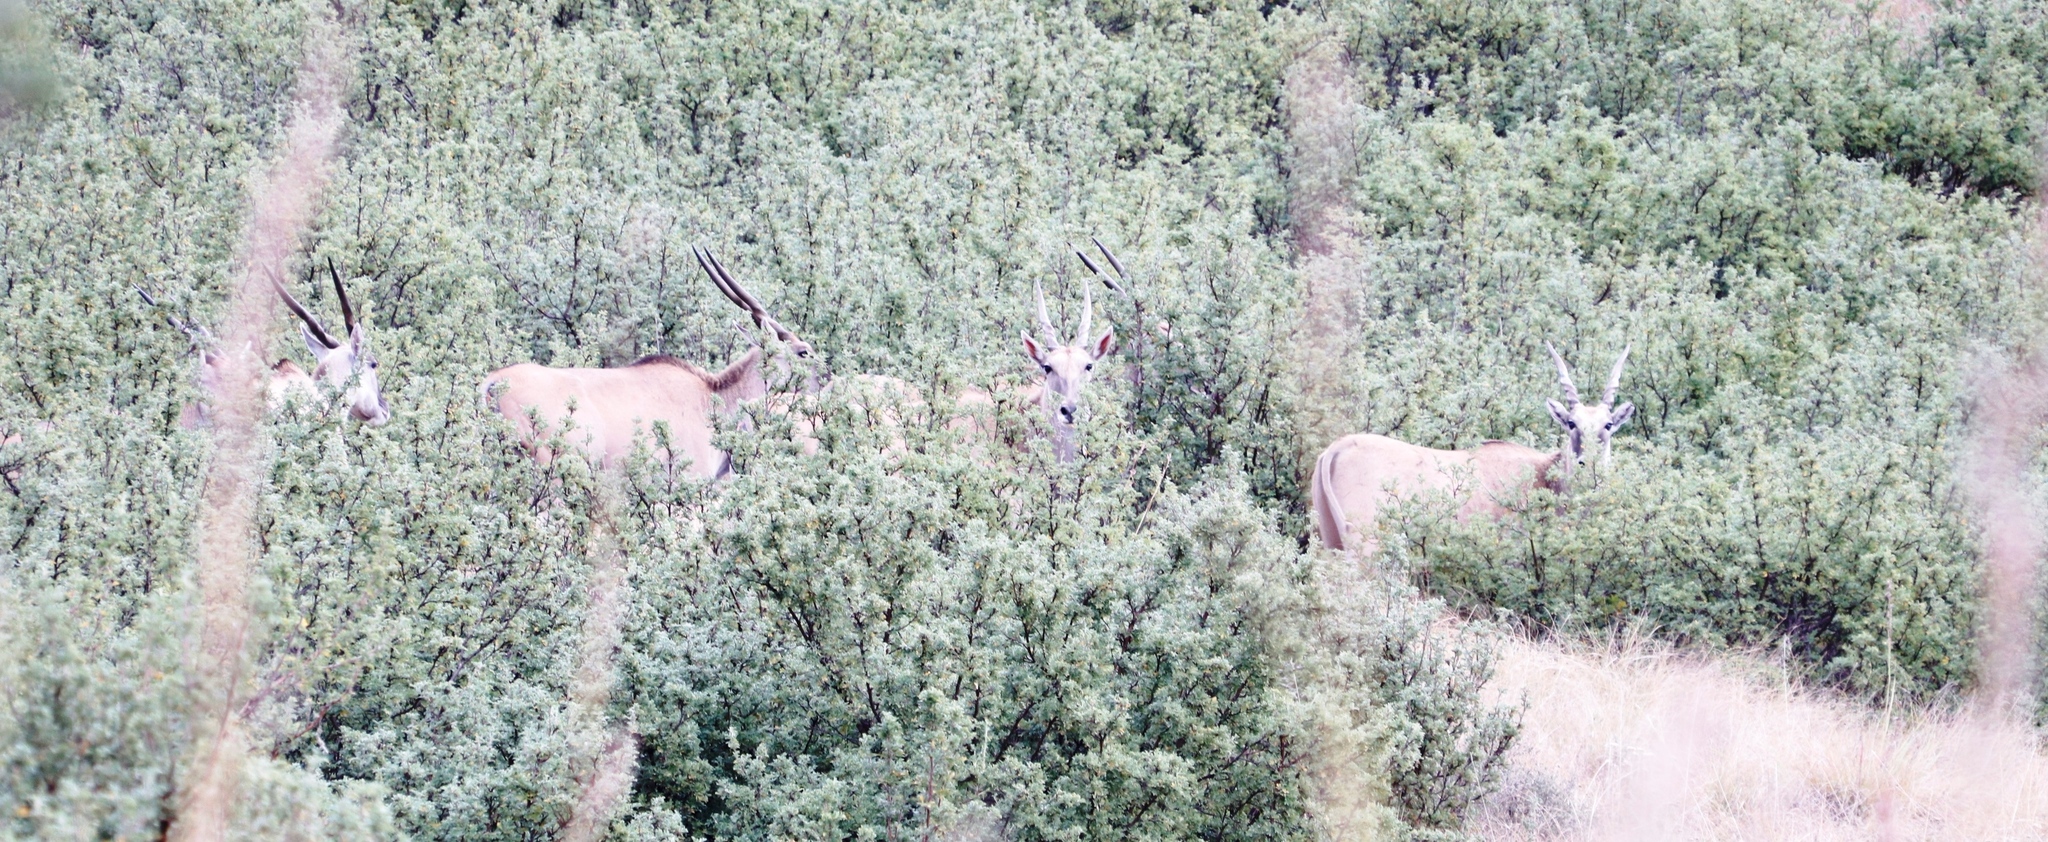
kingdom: Plantae
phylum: Tracheophyta
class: Magnoliopsida
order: Rosales
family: Rosaceae
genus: Leucosidea
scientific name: Leucosidea sericea
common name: Oldwood
